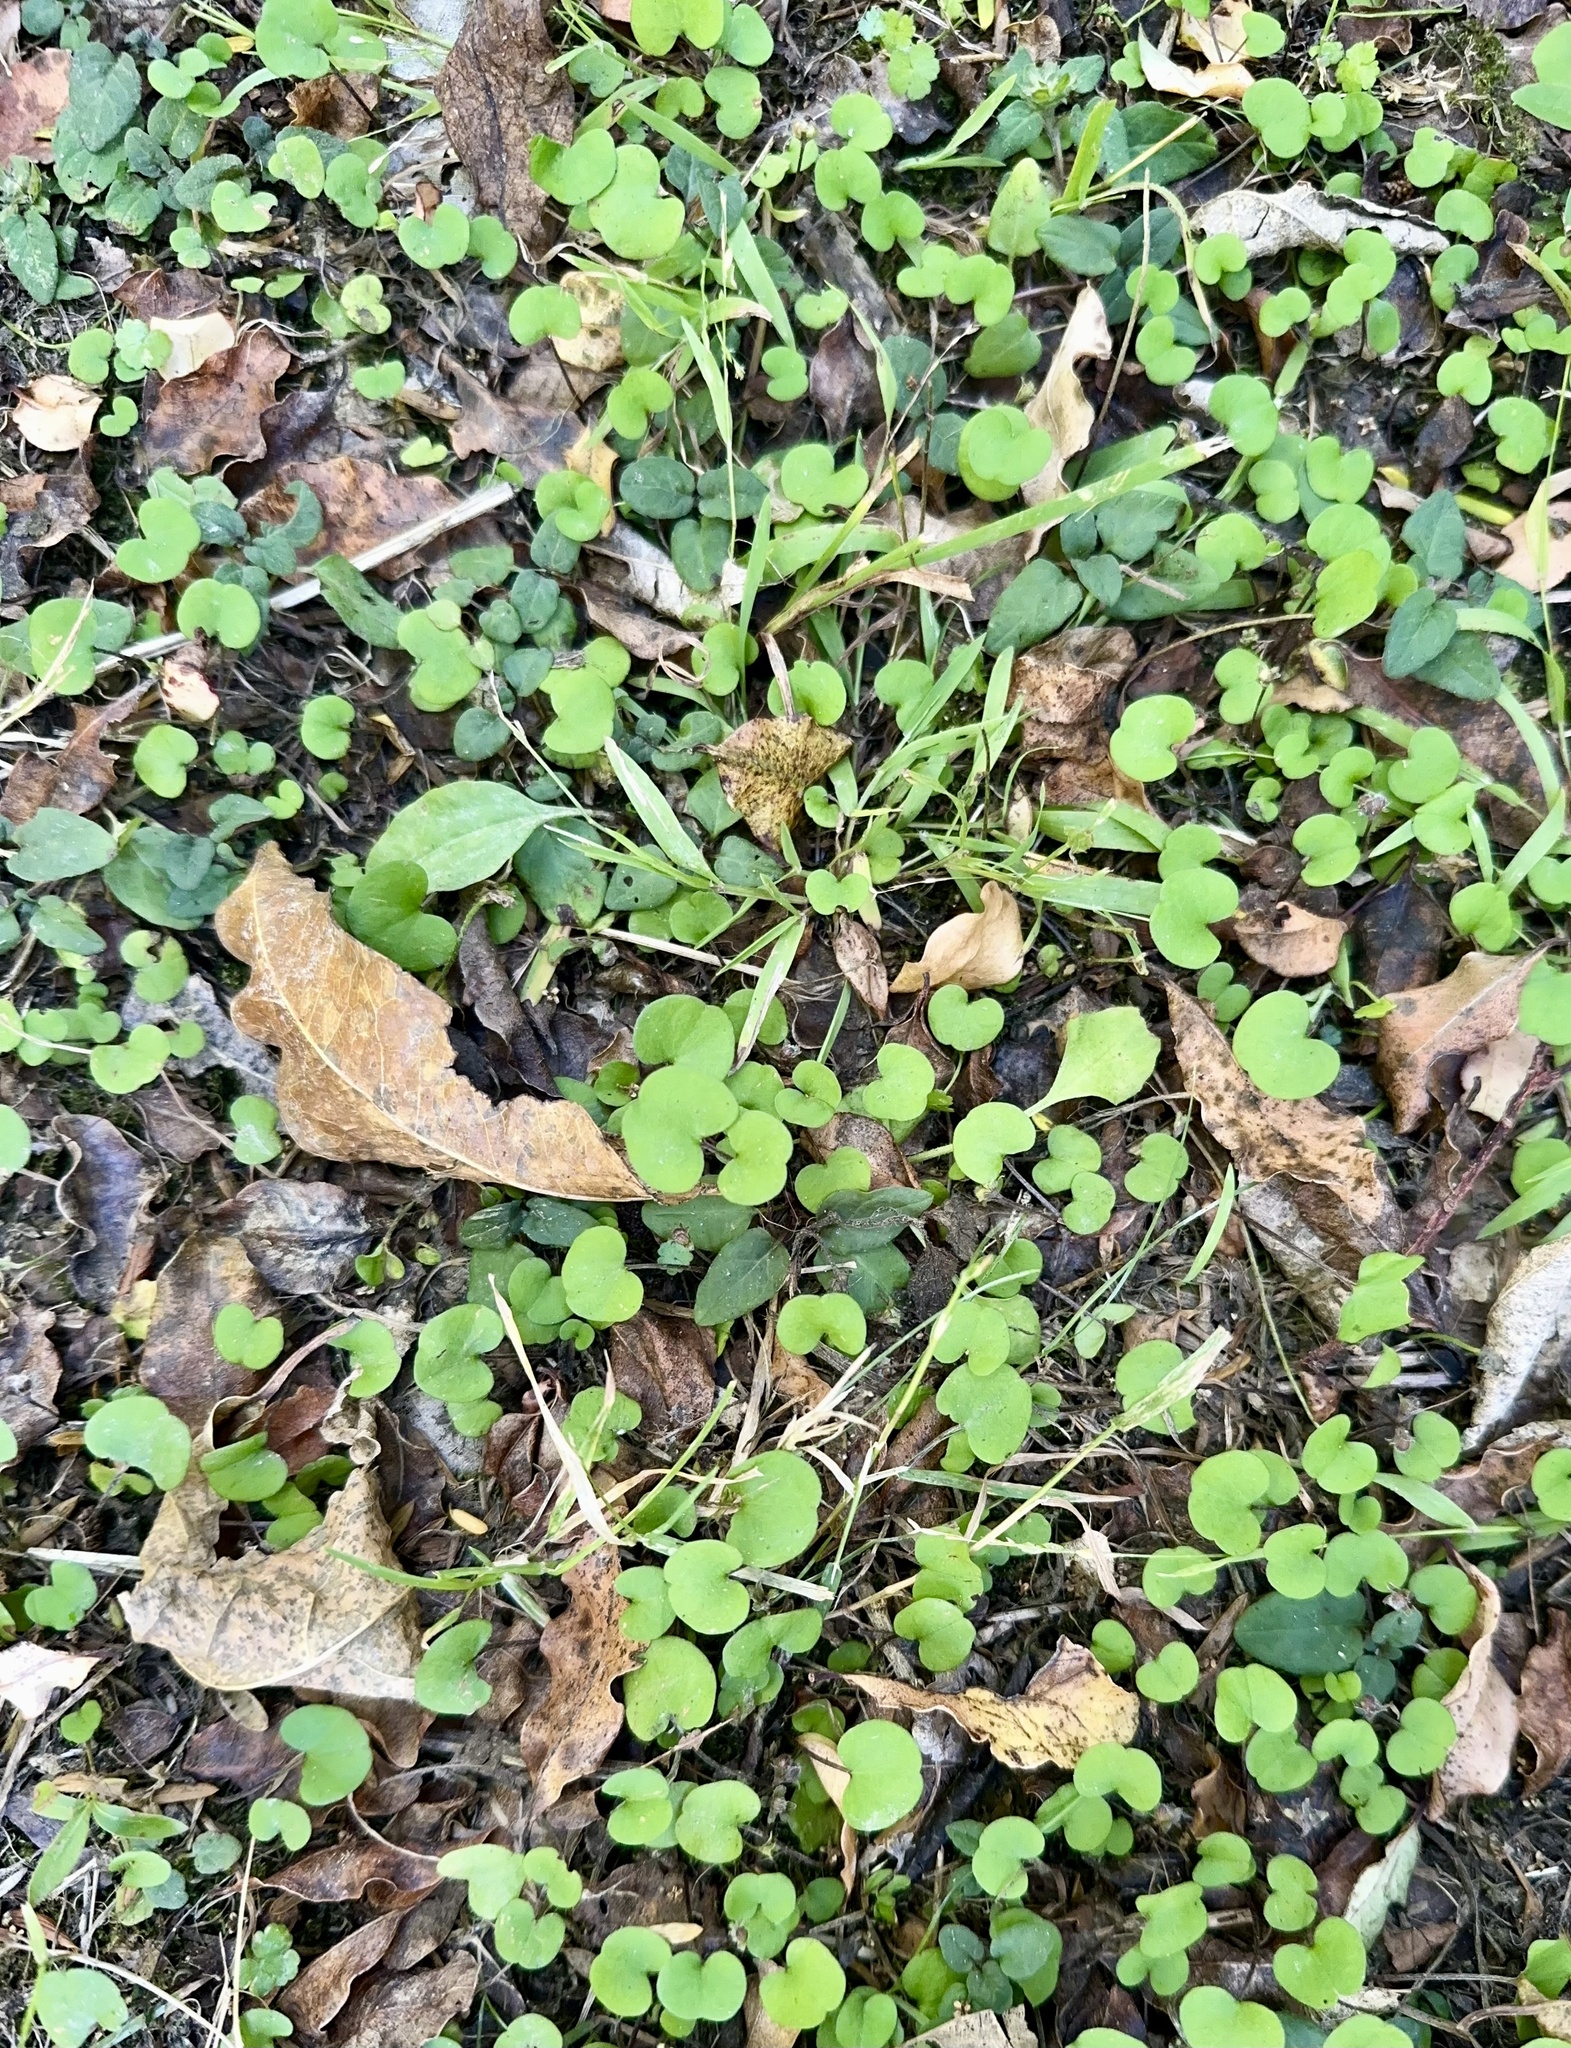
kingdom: Plantae
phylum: Tracheophyta
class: Magnoliopsida
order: Solanales
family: Convolvulaceae
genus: Dichondra
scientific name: Dichondra repens
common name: Kidneyweed
